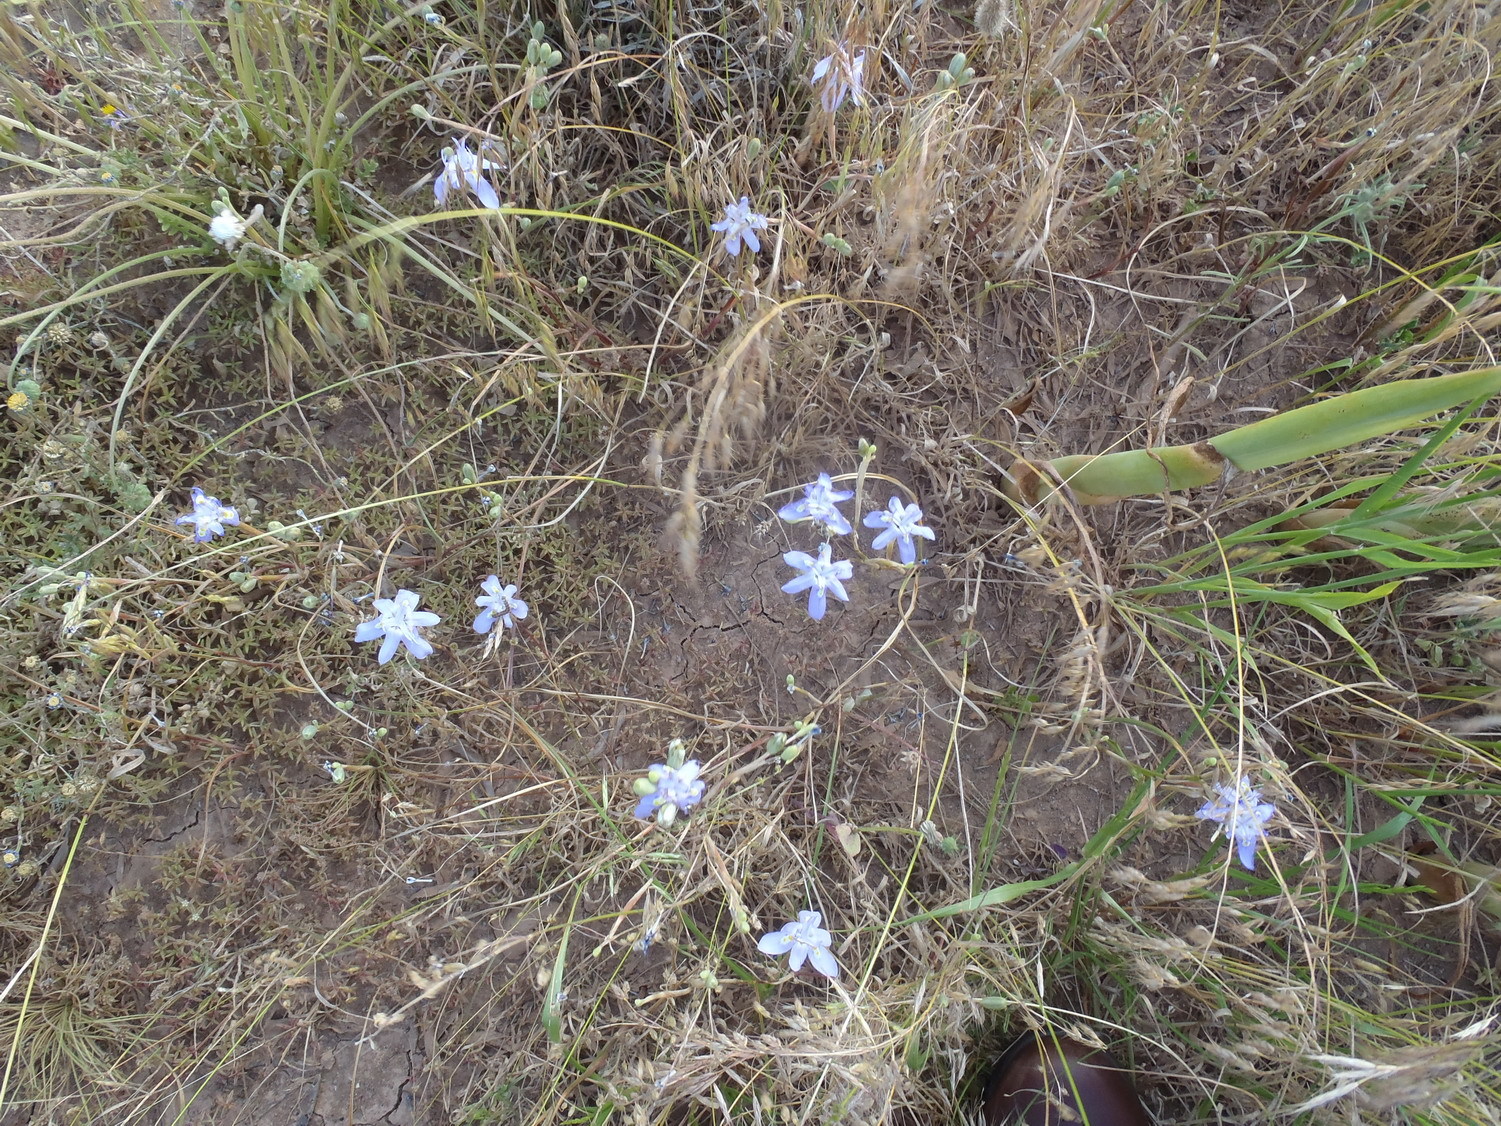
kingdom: Plantae
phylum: Tracheophyta
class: Liliopsida
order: Asparagales
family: Iridaceae
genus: Moraea
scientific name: Moraea bipartita
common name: Blue tulp
